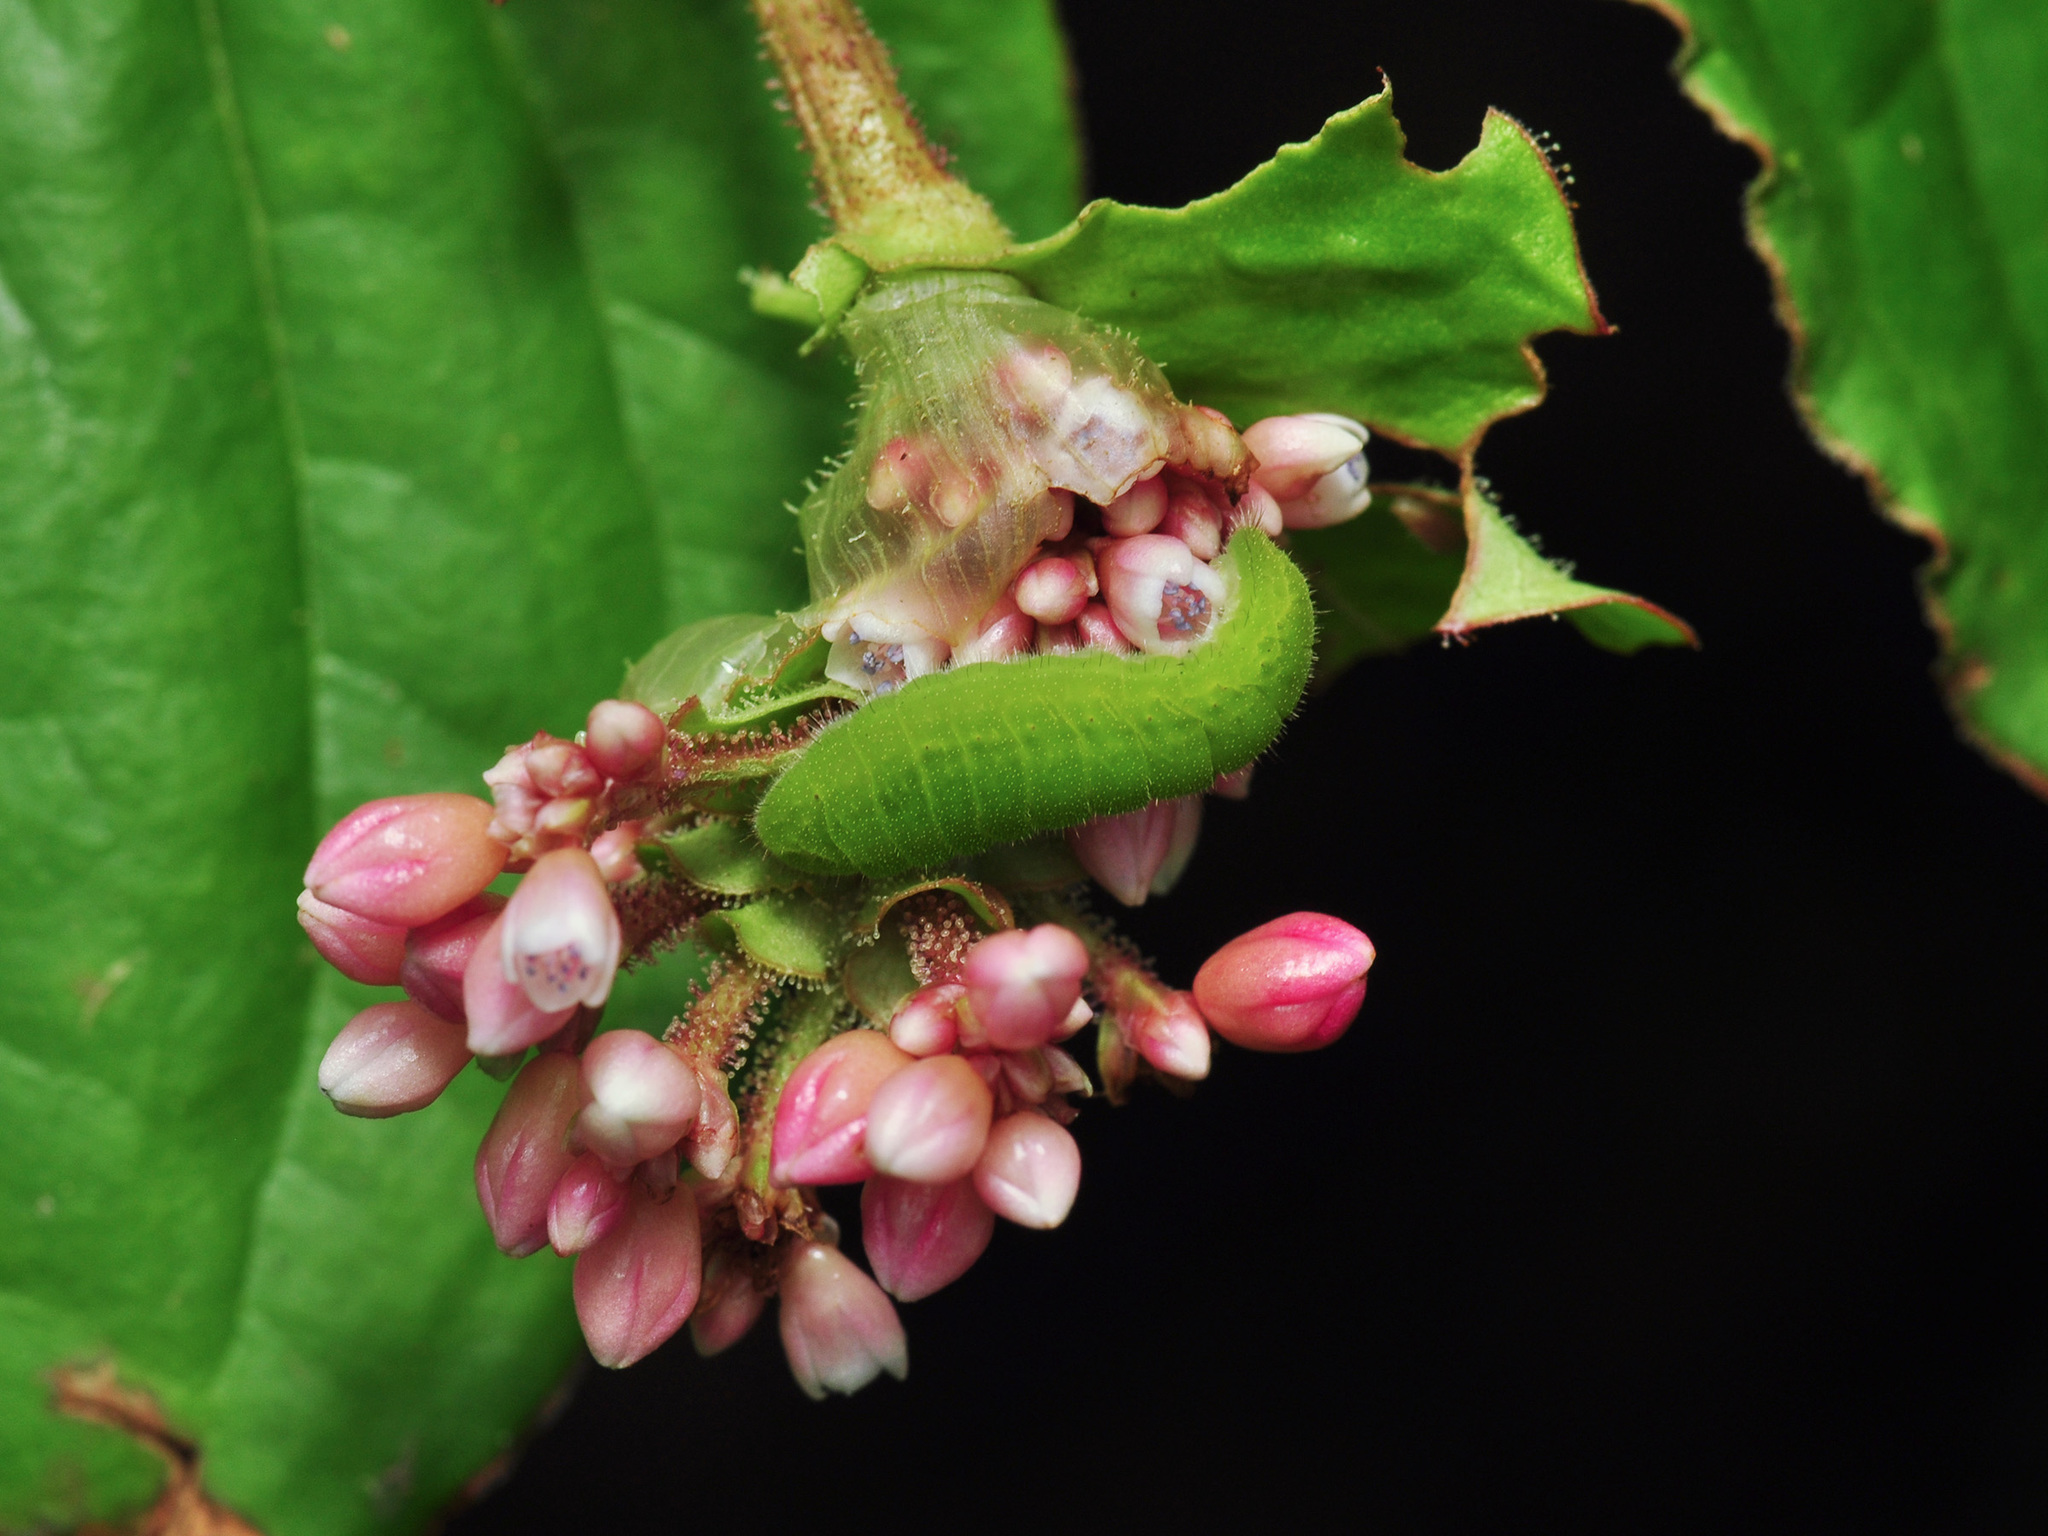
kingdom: Animalia
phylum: Arthropoda
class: Insecta
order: Lepidoptera
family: Lycaenidae
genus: Heliophorus
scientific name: Heliophorus epicles
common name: Purple sapphire
